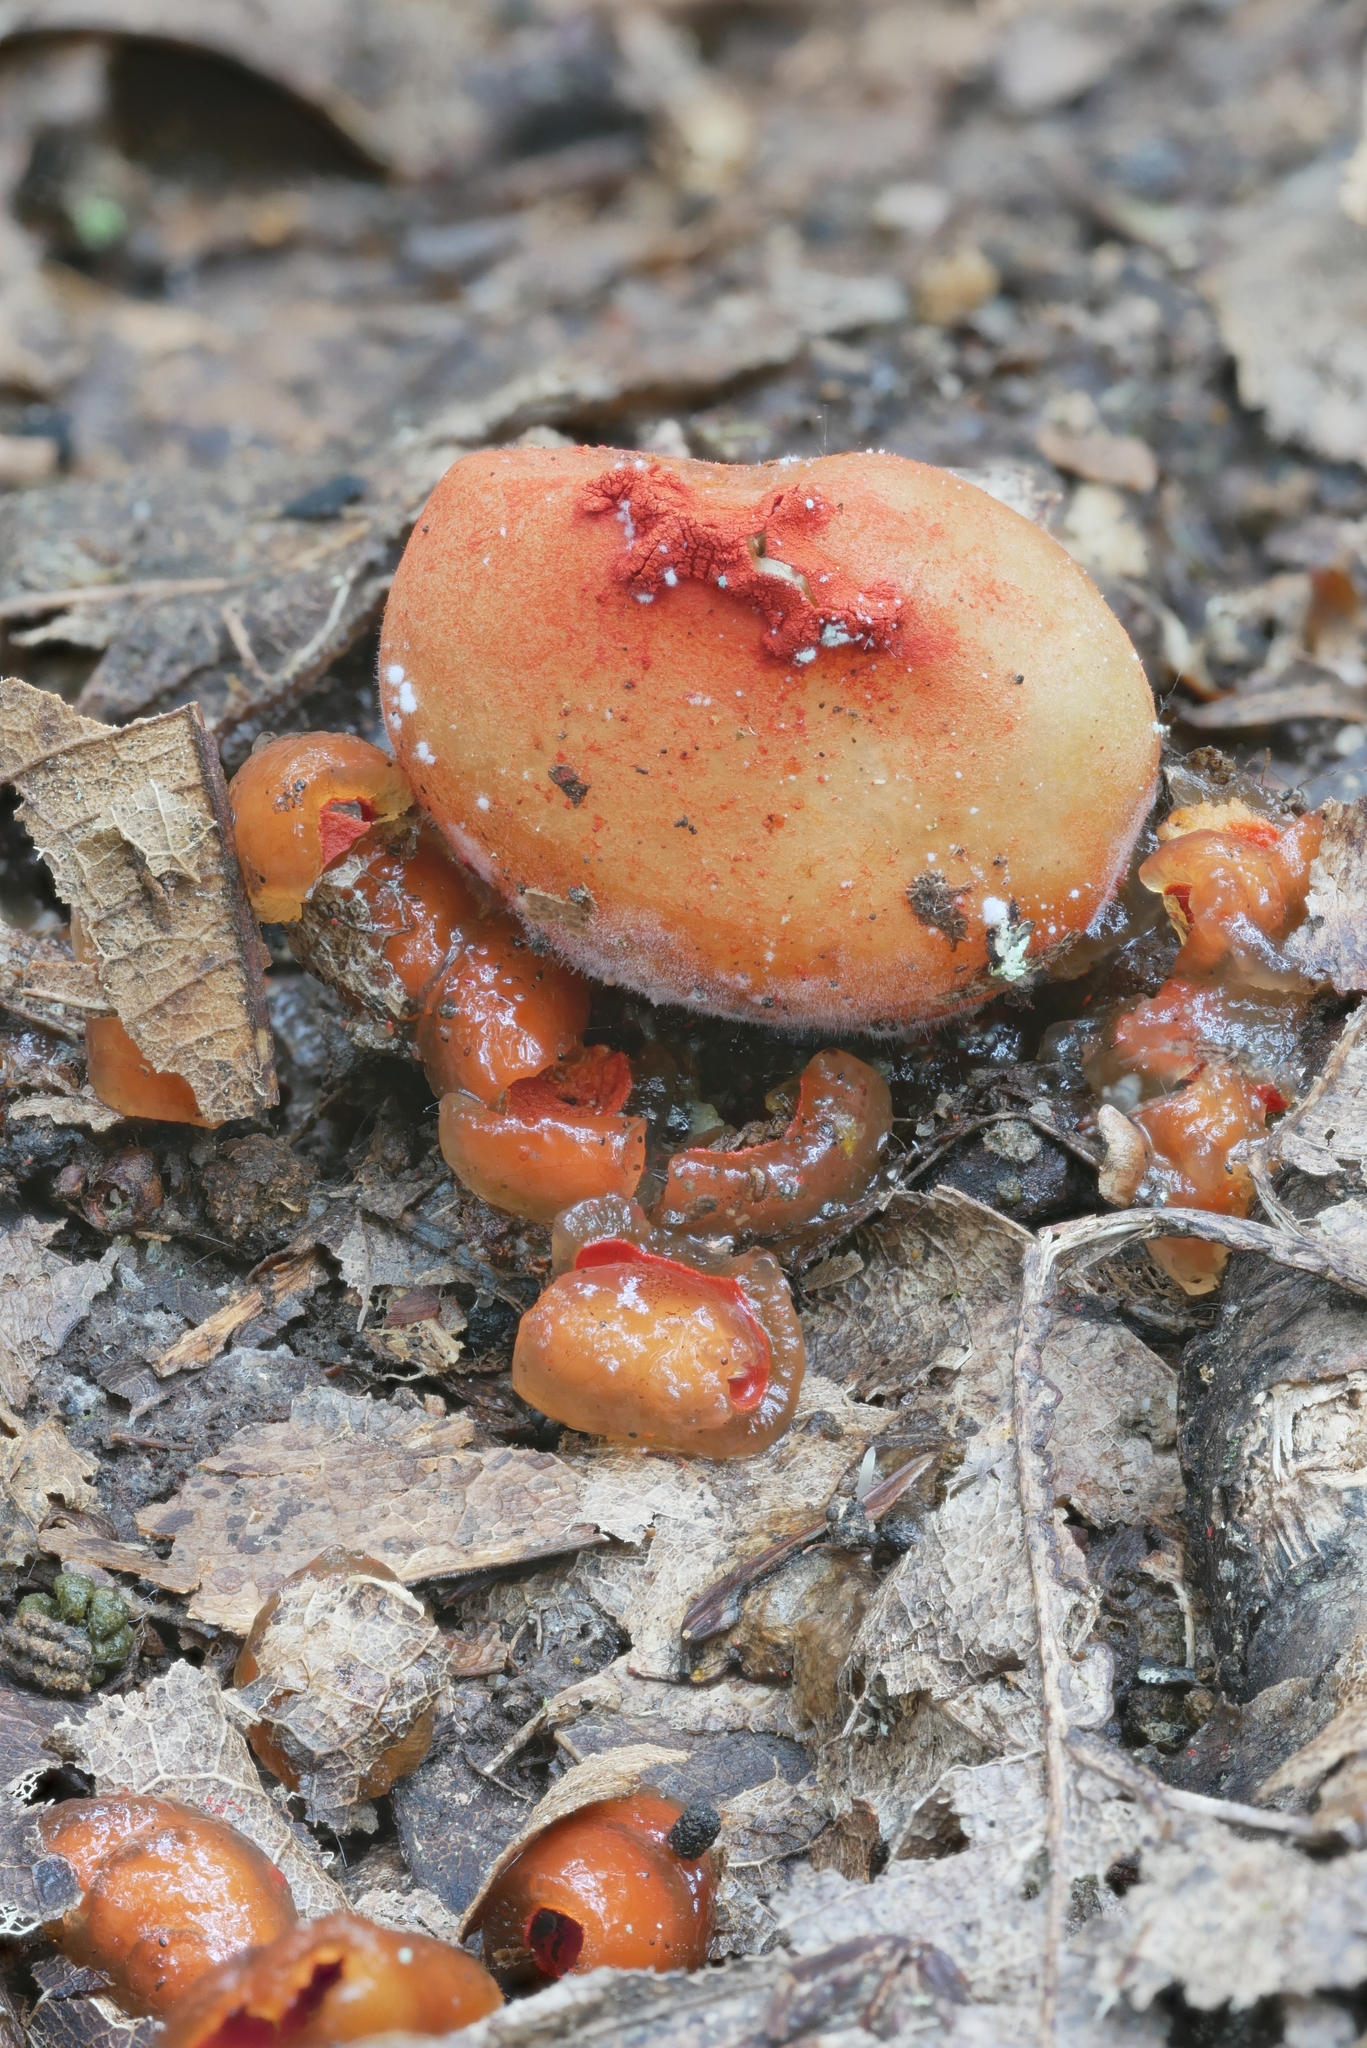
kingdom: Fungi
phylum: Basidiomycota
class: Agaricomycetes
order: Boletales
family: Calostomataceae
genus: Calostoma
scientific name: Calostoma cinnabarinum
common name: Stalked puffball-in-aspic
